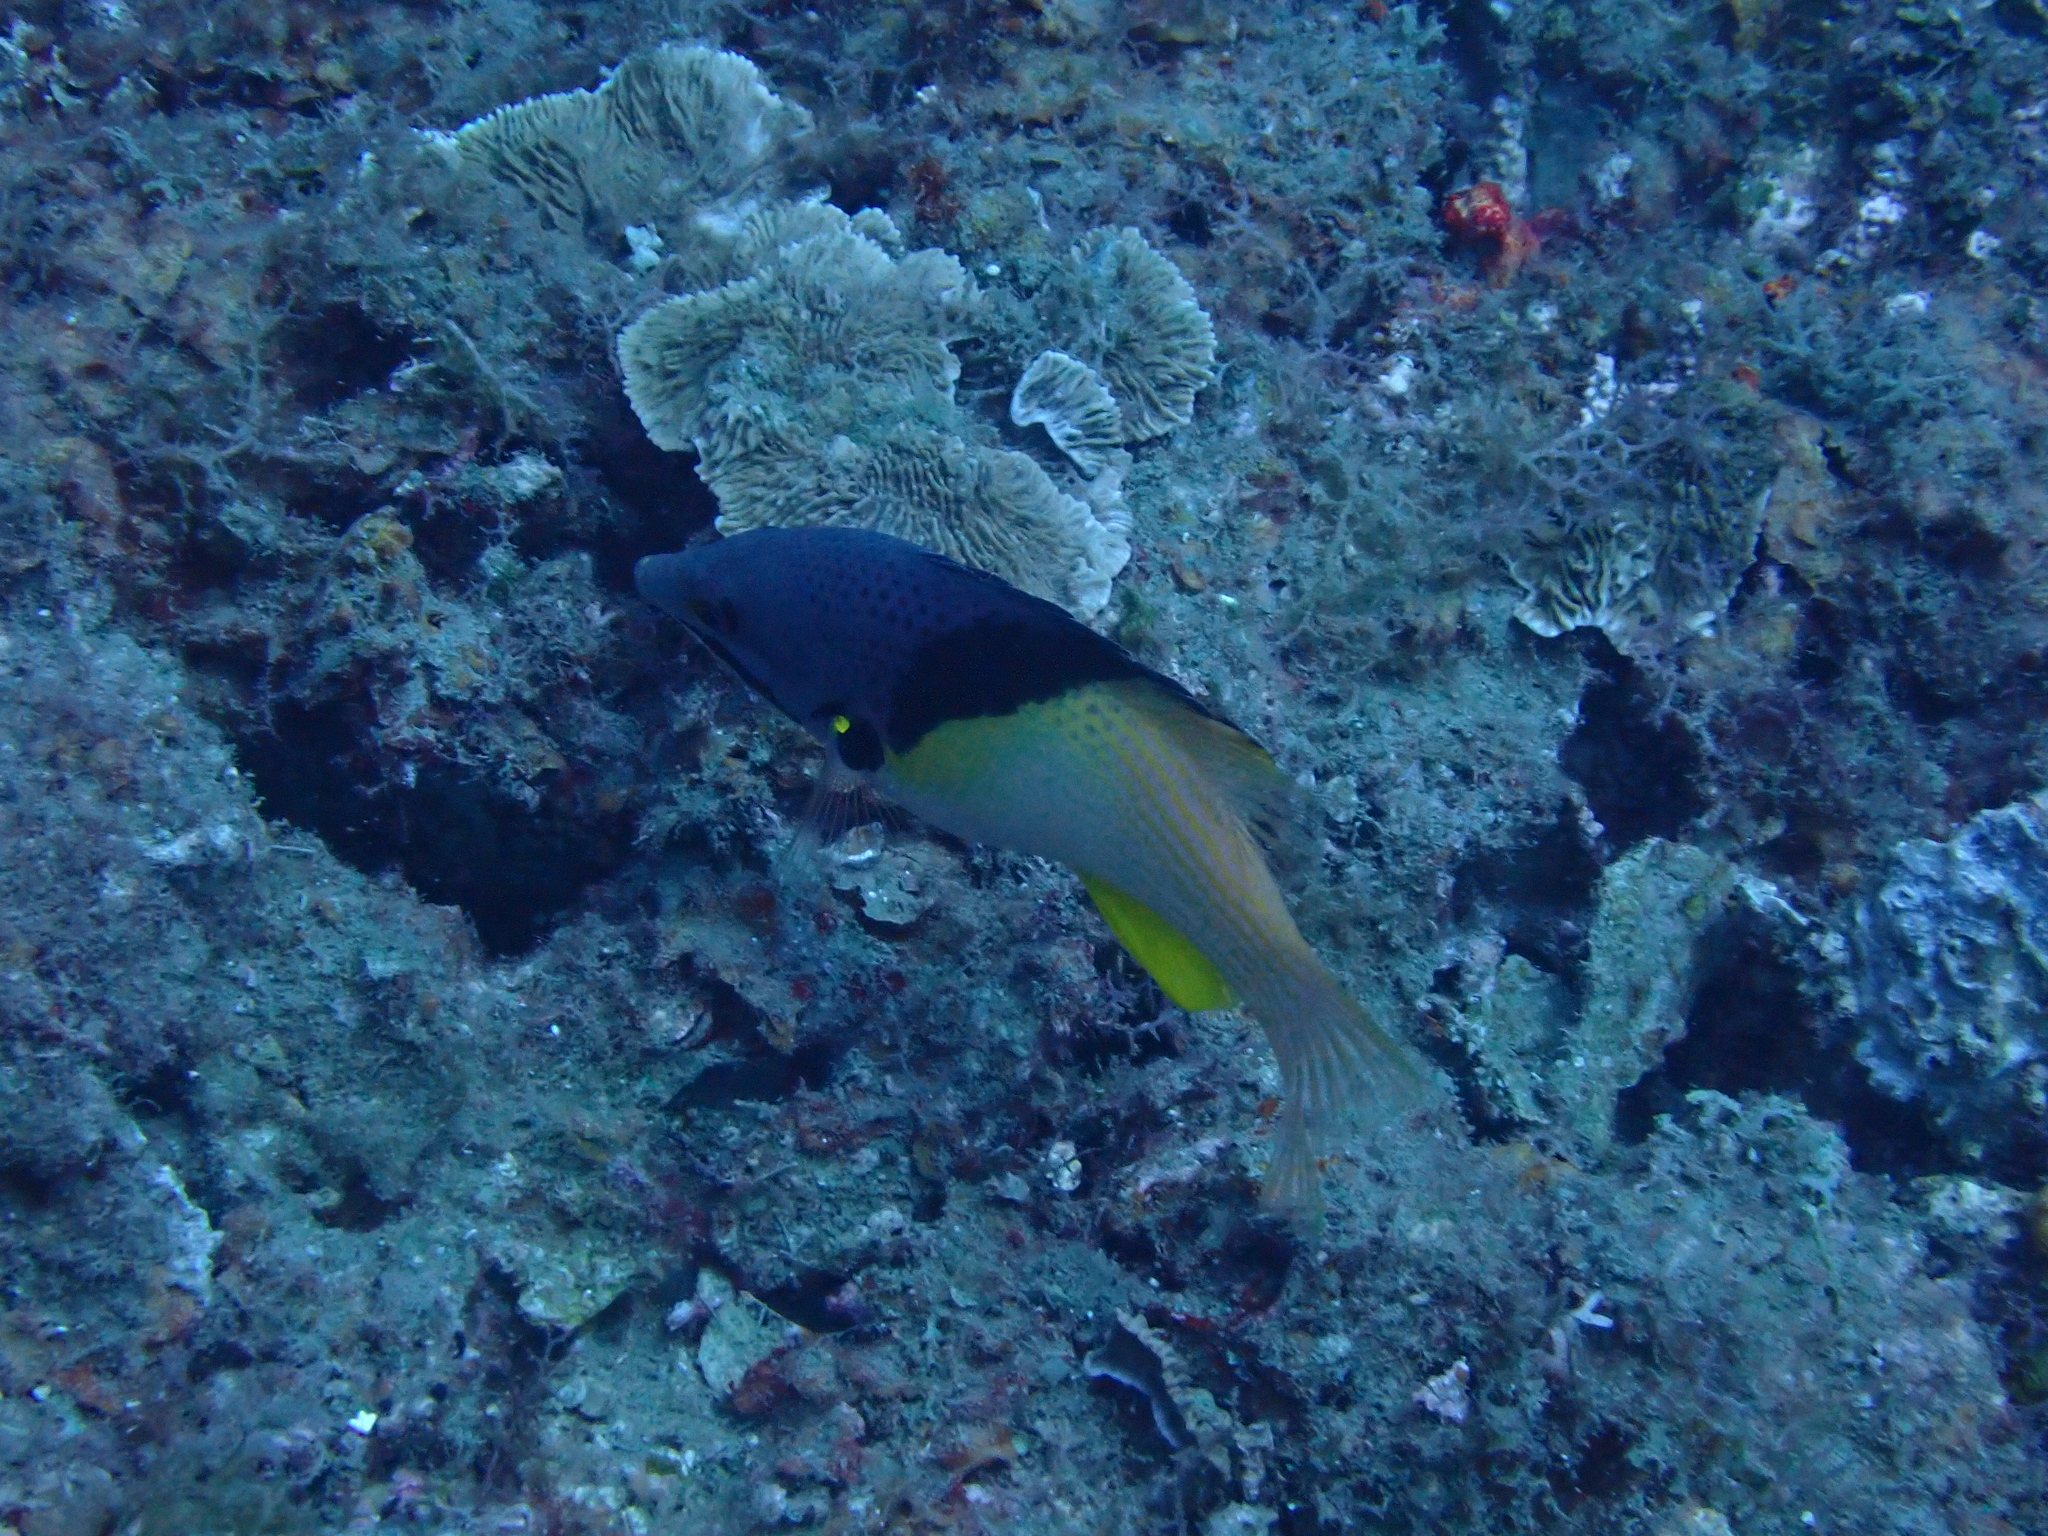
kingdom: Animalia
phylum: Chordata
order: Perciformes
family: Labridae
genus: Bodianus
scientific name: Bodianus mesothorax
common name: Coral hogfish
